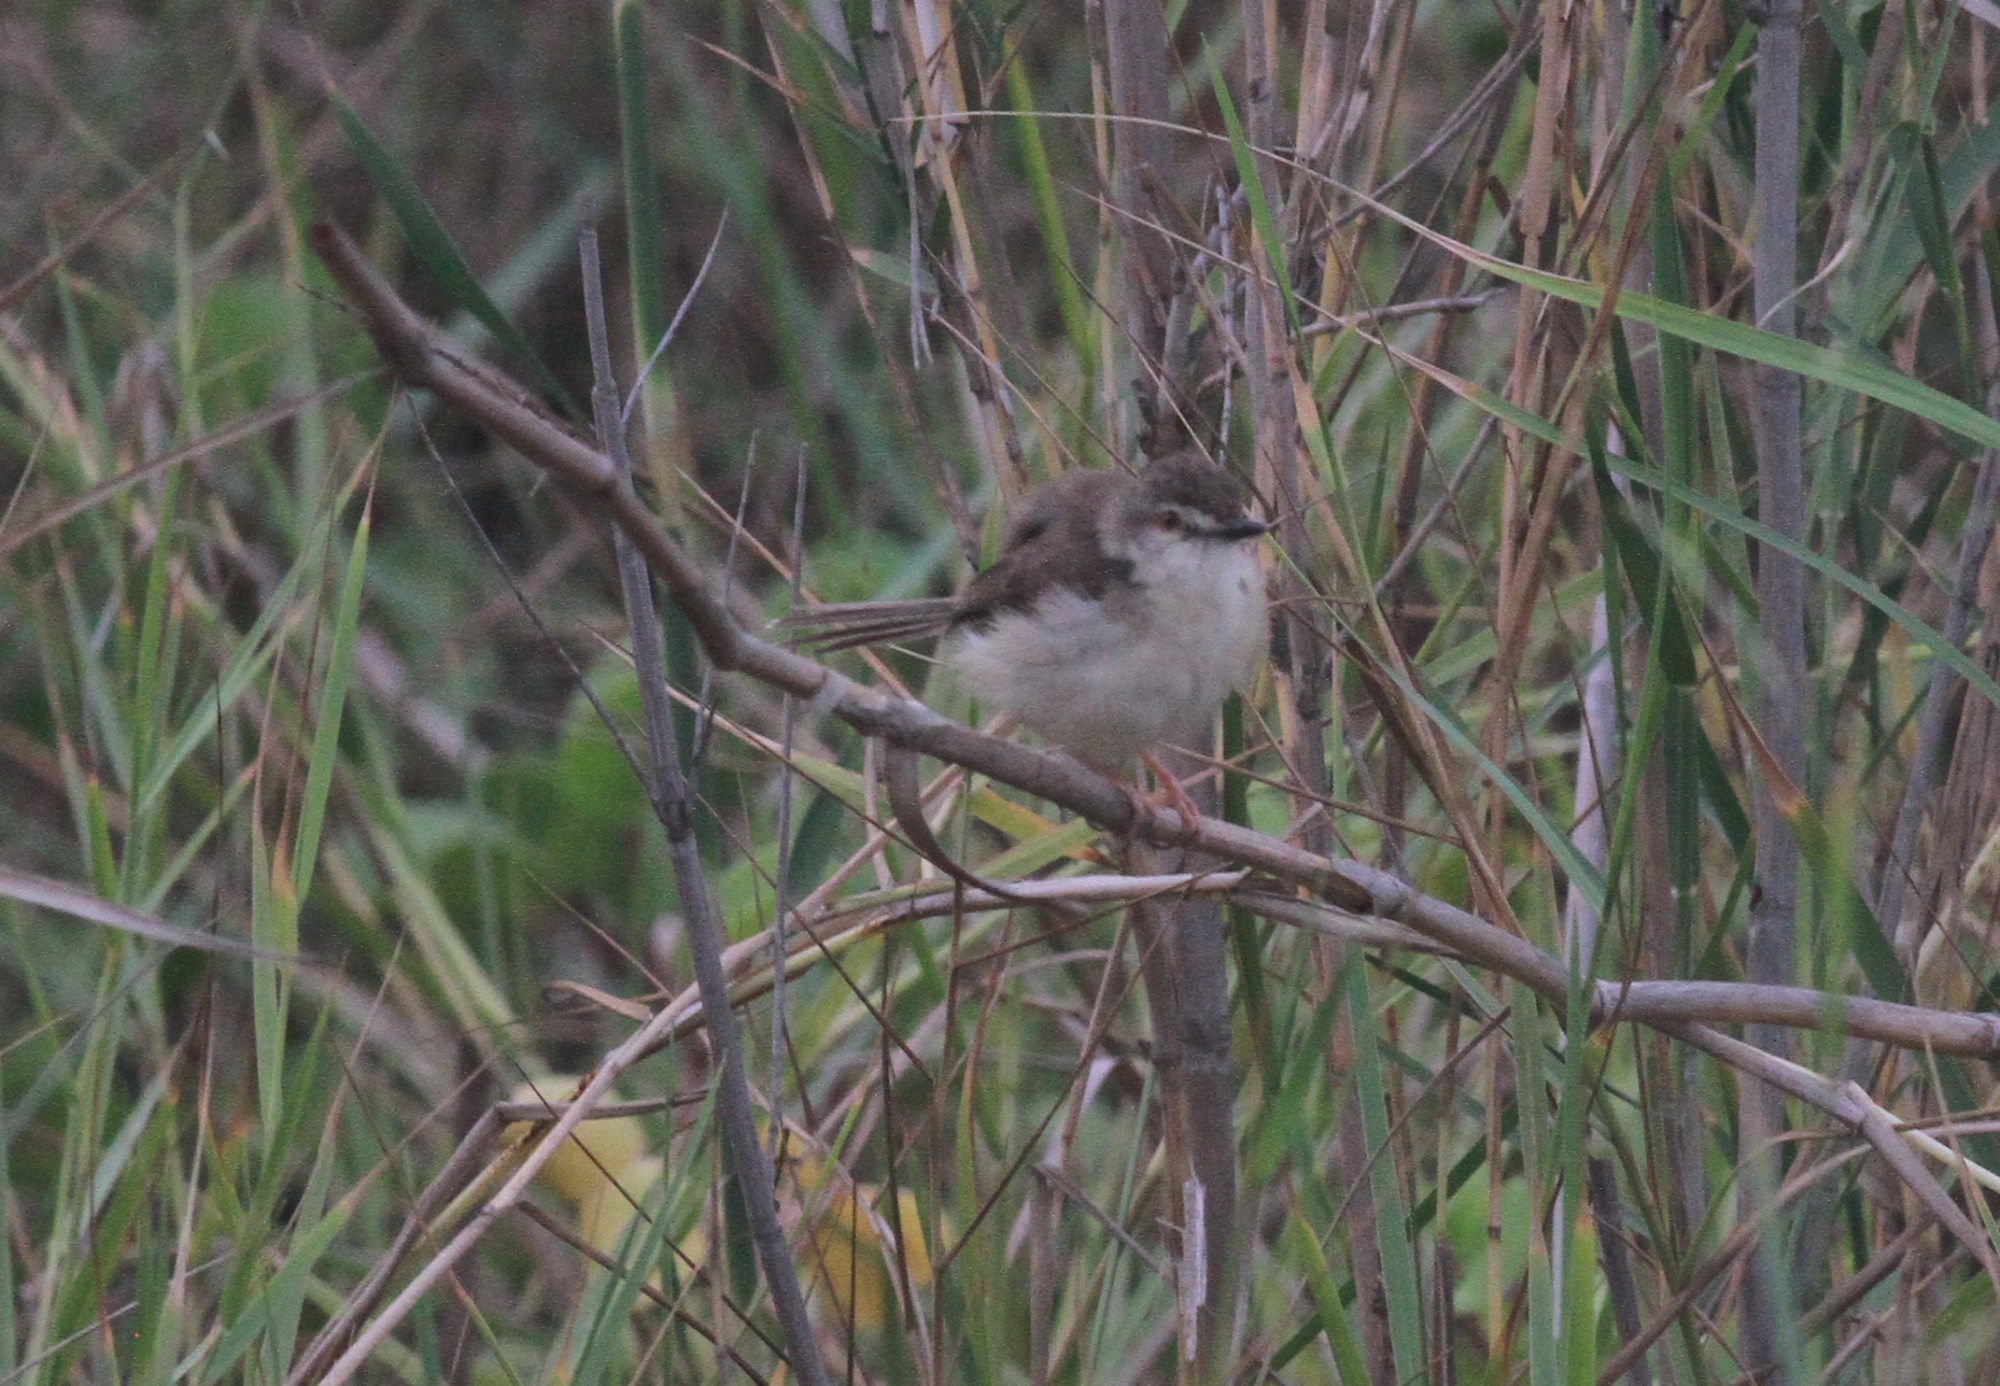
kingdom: Animalia
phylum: Chordata
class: Aves
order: Passeriformes
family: Cisticolidae
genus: Prinia
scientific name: Prinia inornata
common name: Plain prinia
